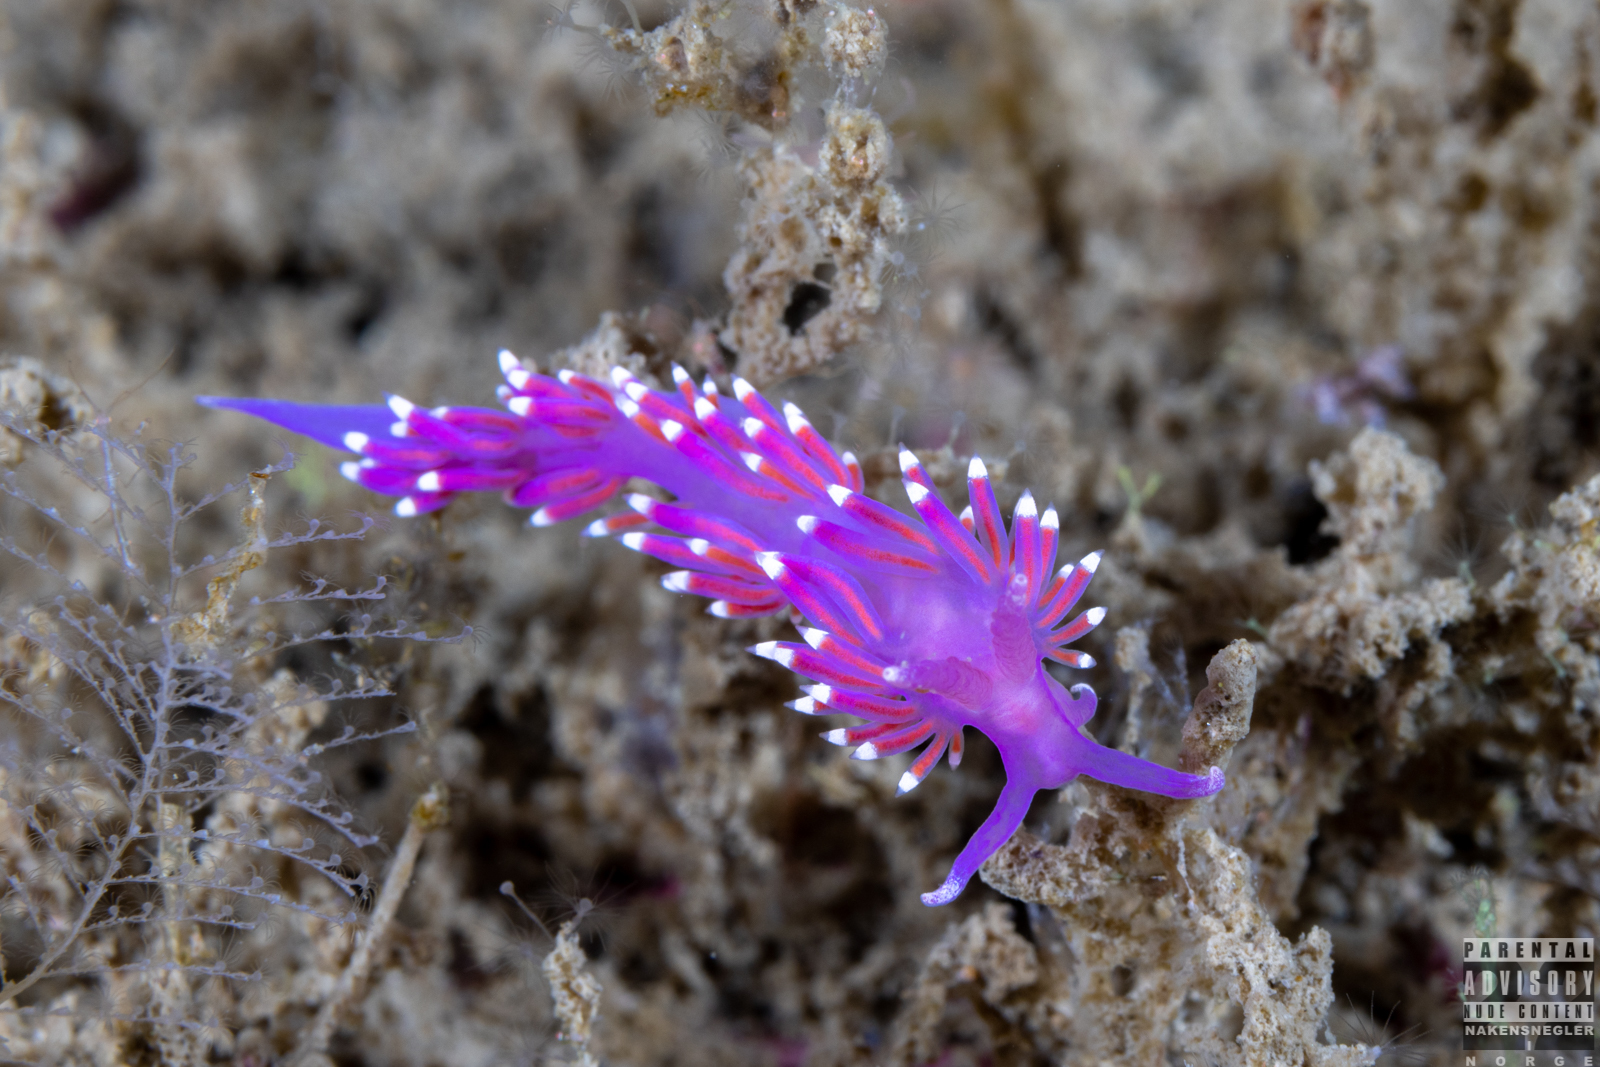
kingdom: Animalia
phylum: Mollusca
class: Gastropoda
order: Nudibranchia
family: Flabellinidae
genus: Edmundsella
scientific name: Edmundsella pedata
